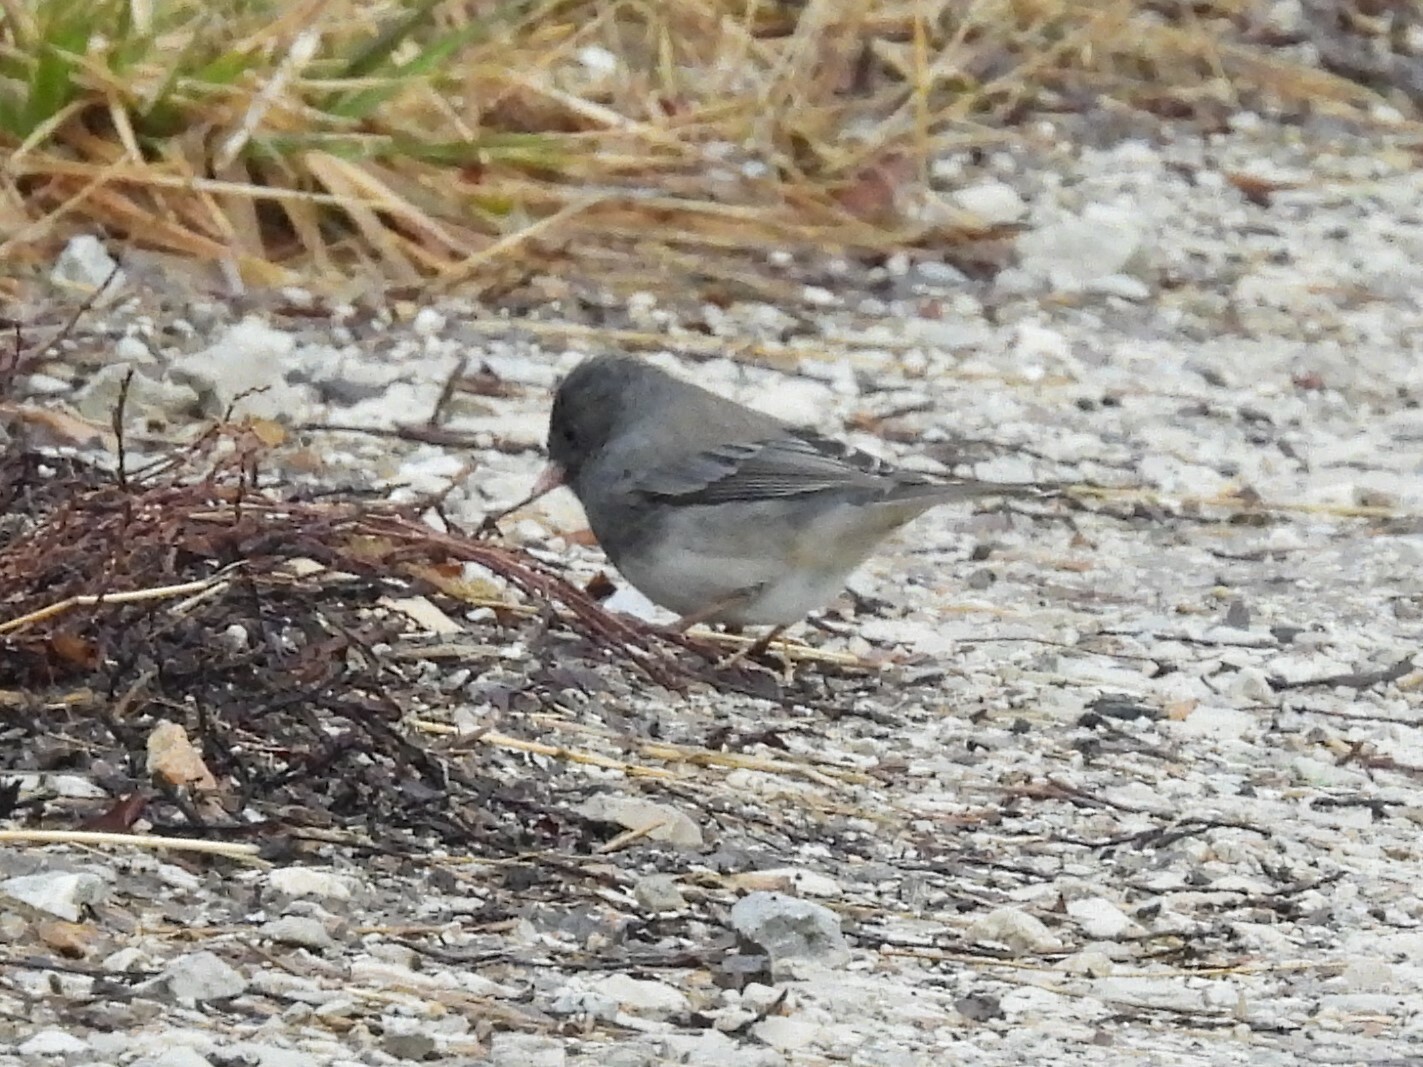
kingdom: Animalia
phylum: Chordata
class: Aves
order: Passeriformes
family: Passerellidae
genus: Junco
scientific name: Junco hyemalis
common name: Dark-eyed junco
